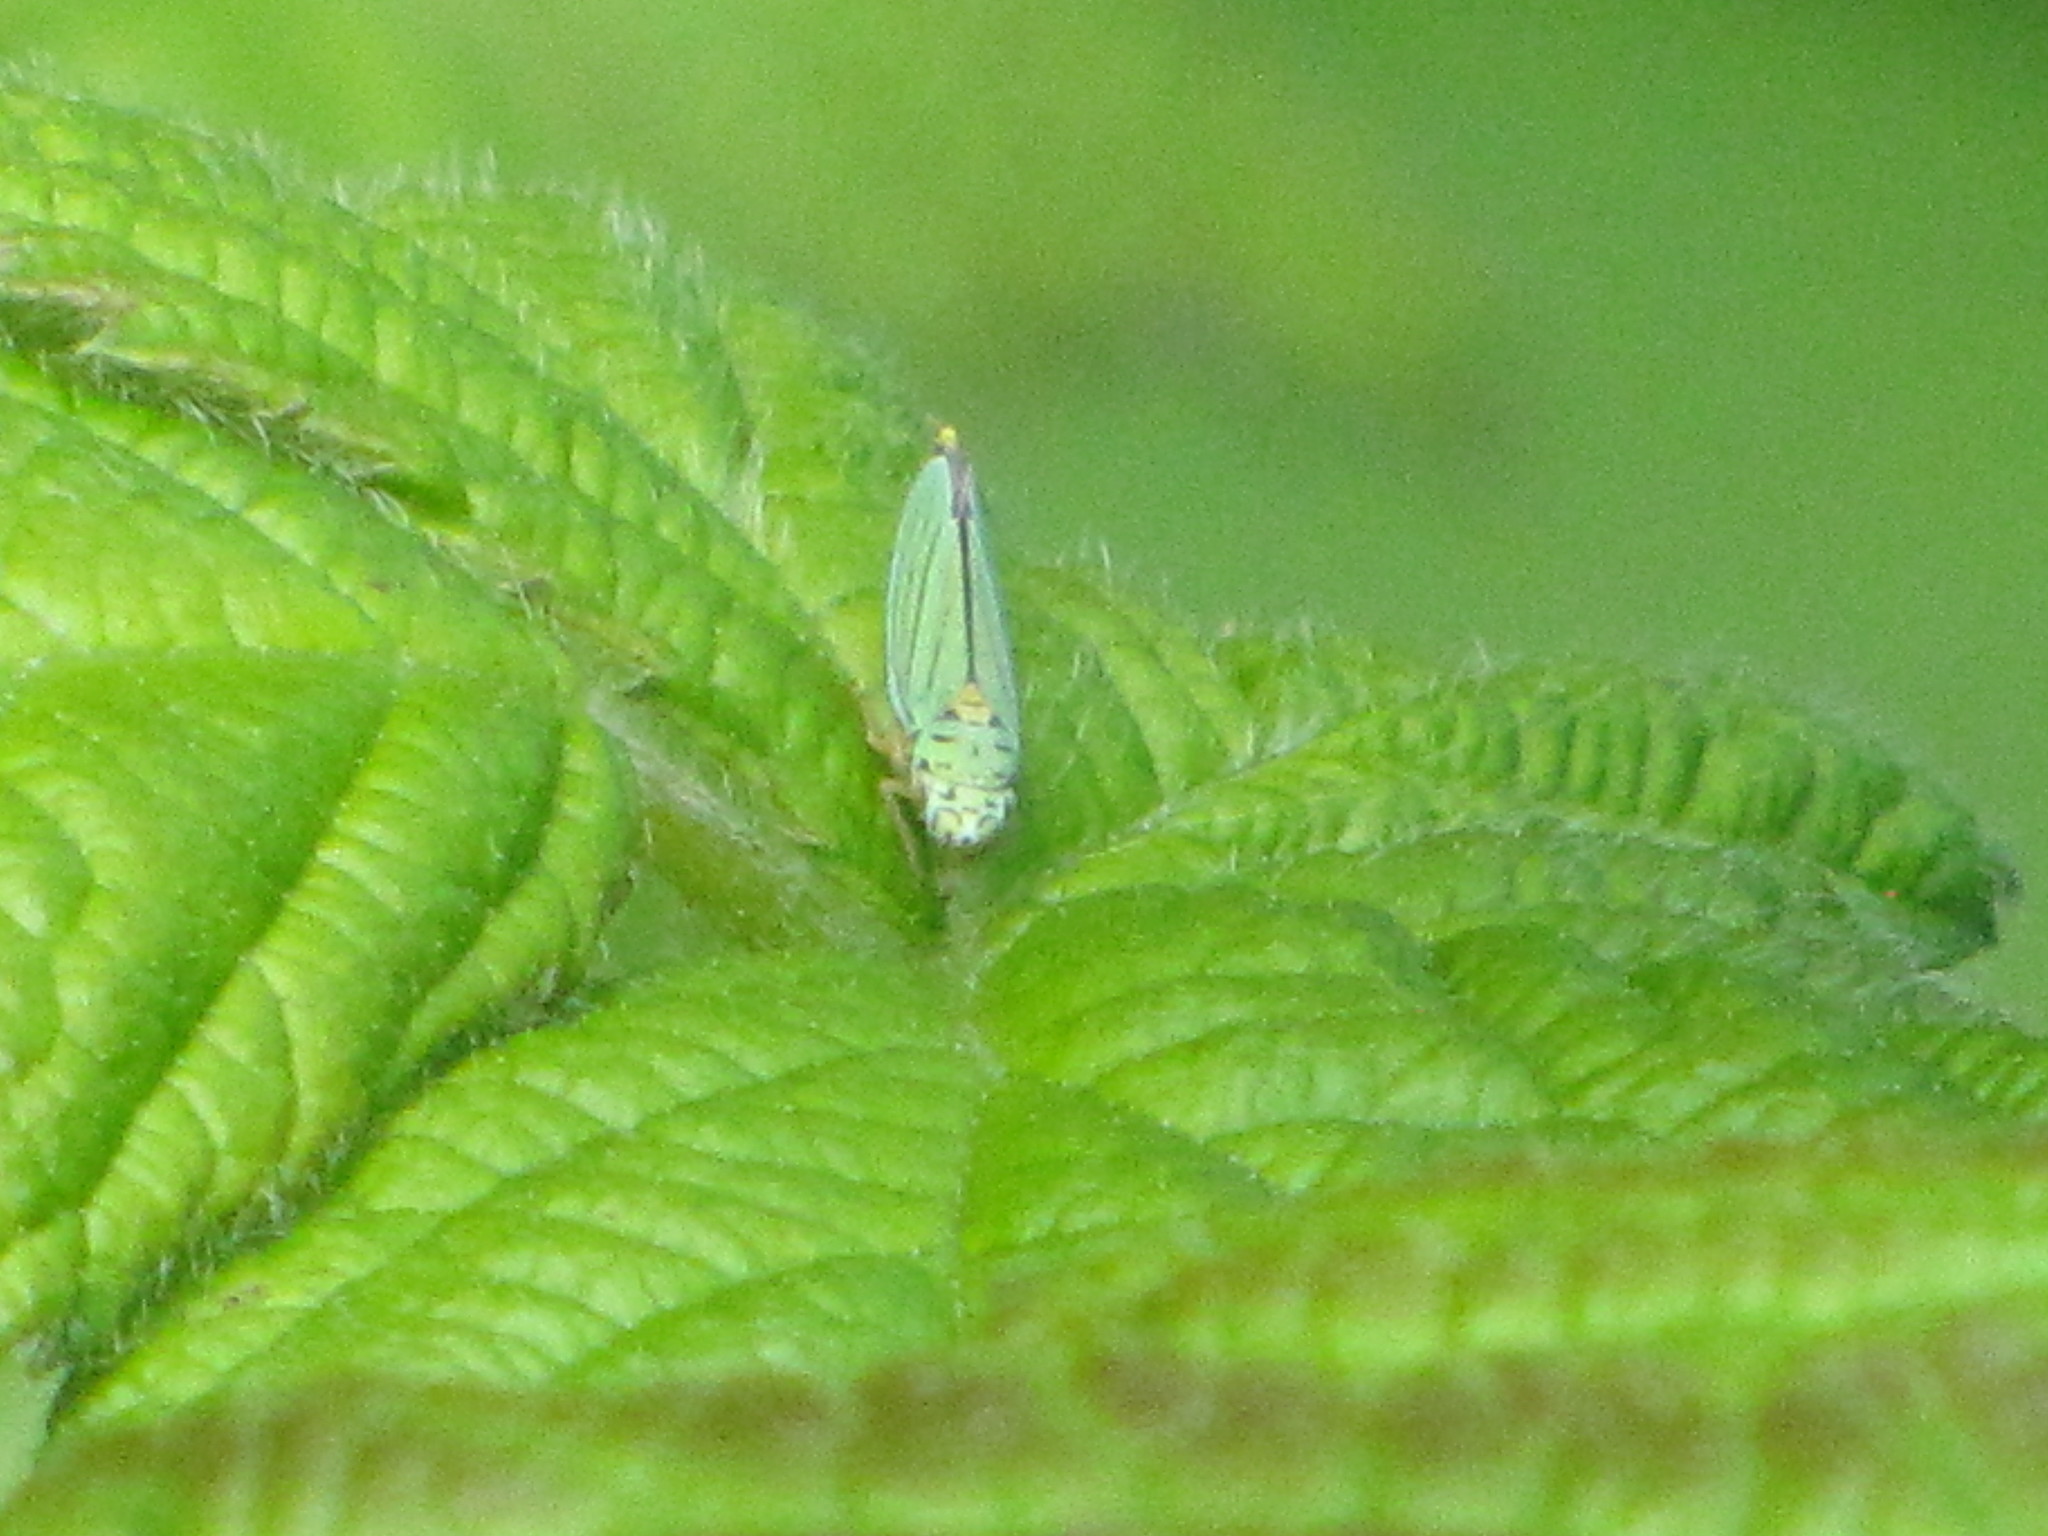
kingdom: Animalia
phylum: Arthropoda
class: Insecta
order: Hemiptera
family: Cicadellidae
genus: Graphocephala
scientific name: Graphocephala atropunctata
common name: Blue-green sharpshooter
